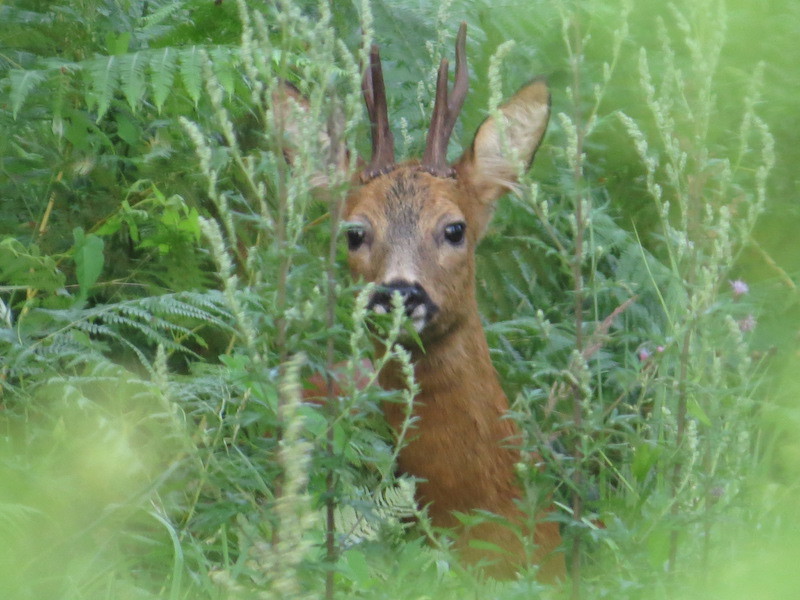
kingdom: Animalia
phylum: Chordata
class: Mammalia
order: Artiodactyla
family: Cervidae
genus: Capreolus
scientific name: Capreolus capreolus
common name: Western roe deer
